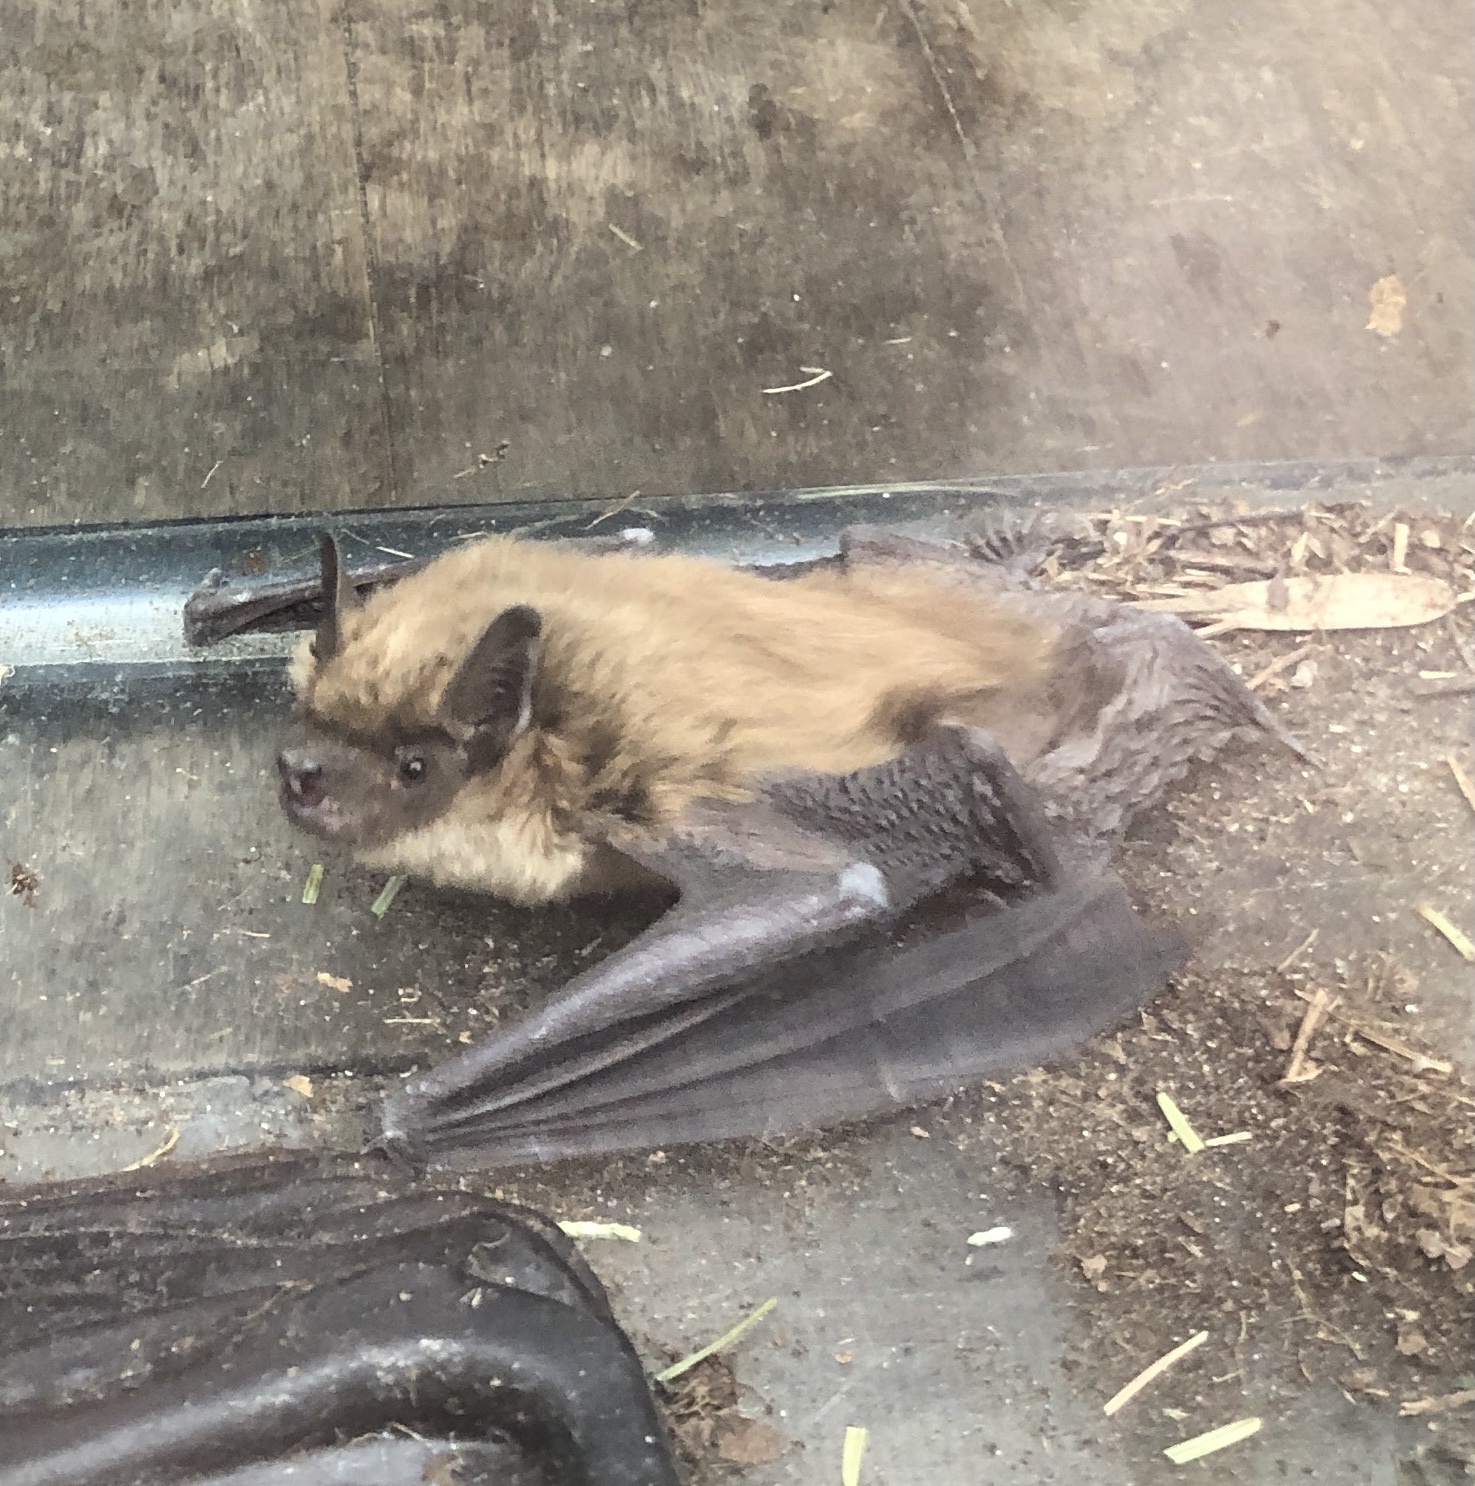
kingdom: Animalia
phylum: Chordata
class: Mammalia
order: Chiroptera
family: Vespertilionidae
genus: Eptesicus
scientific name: Eptesicus fuscus
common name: Big brown bat
